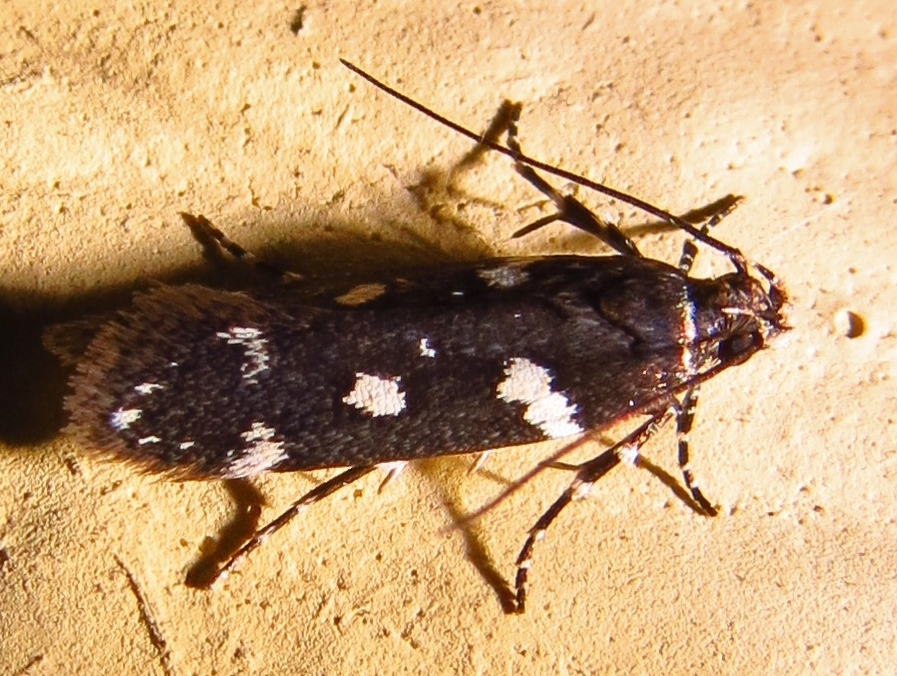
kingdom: Animalia
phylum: Arthropoda
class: Insecta
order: Lepidoptera
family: Gelechiidae
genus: Aroga
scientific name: Aroga compositella
